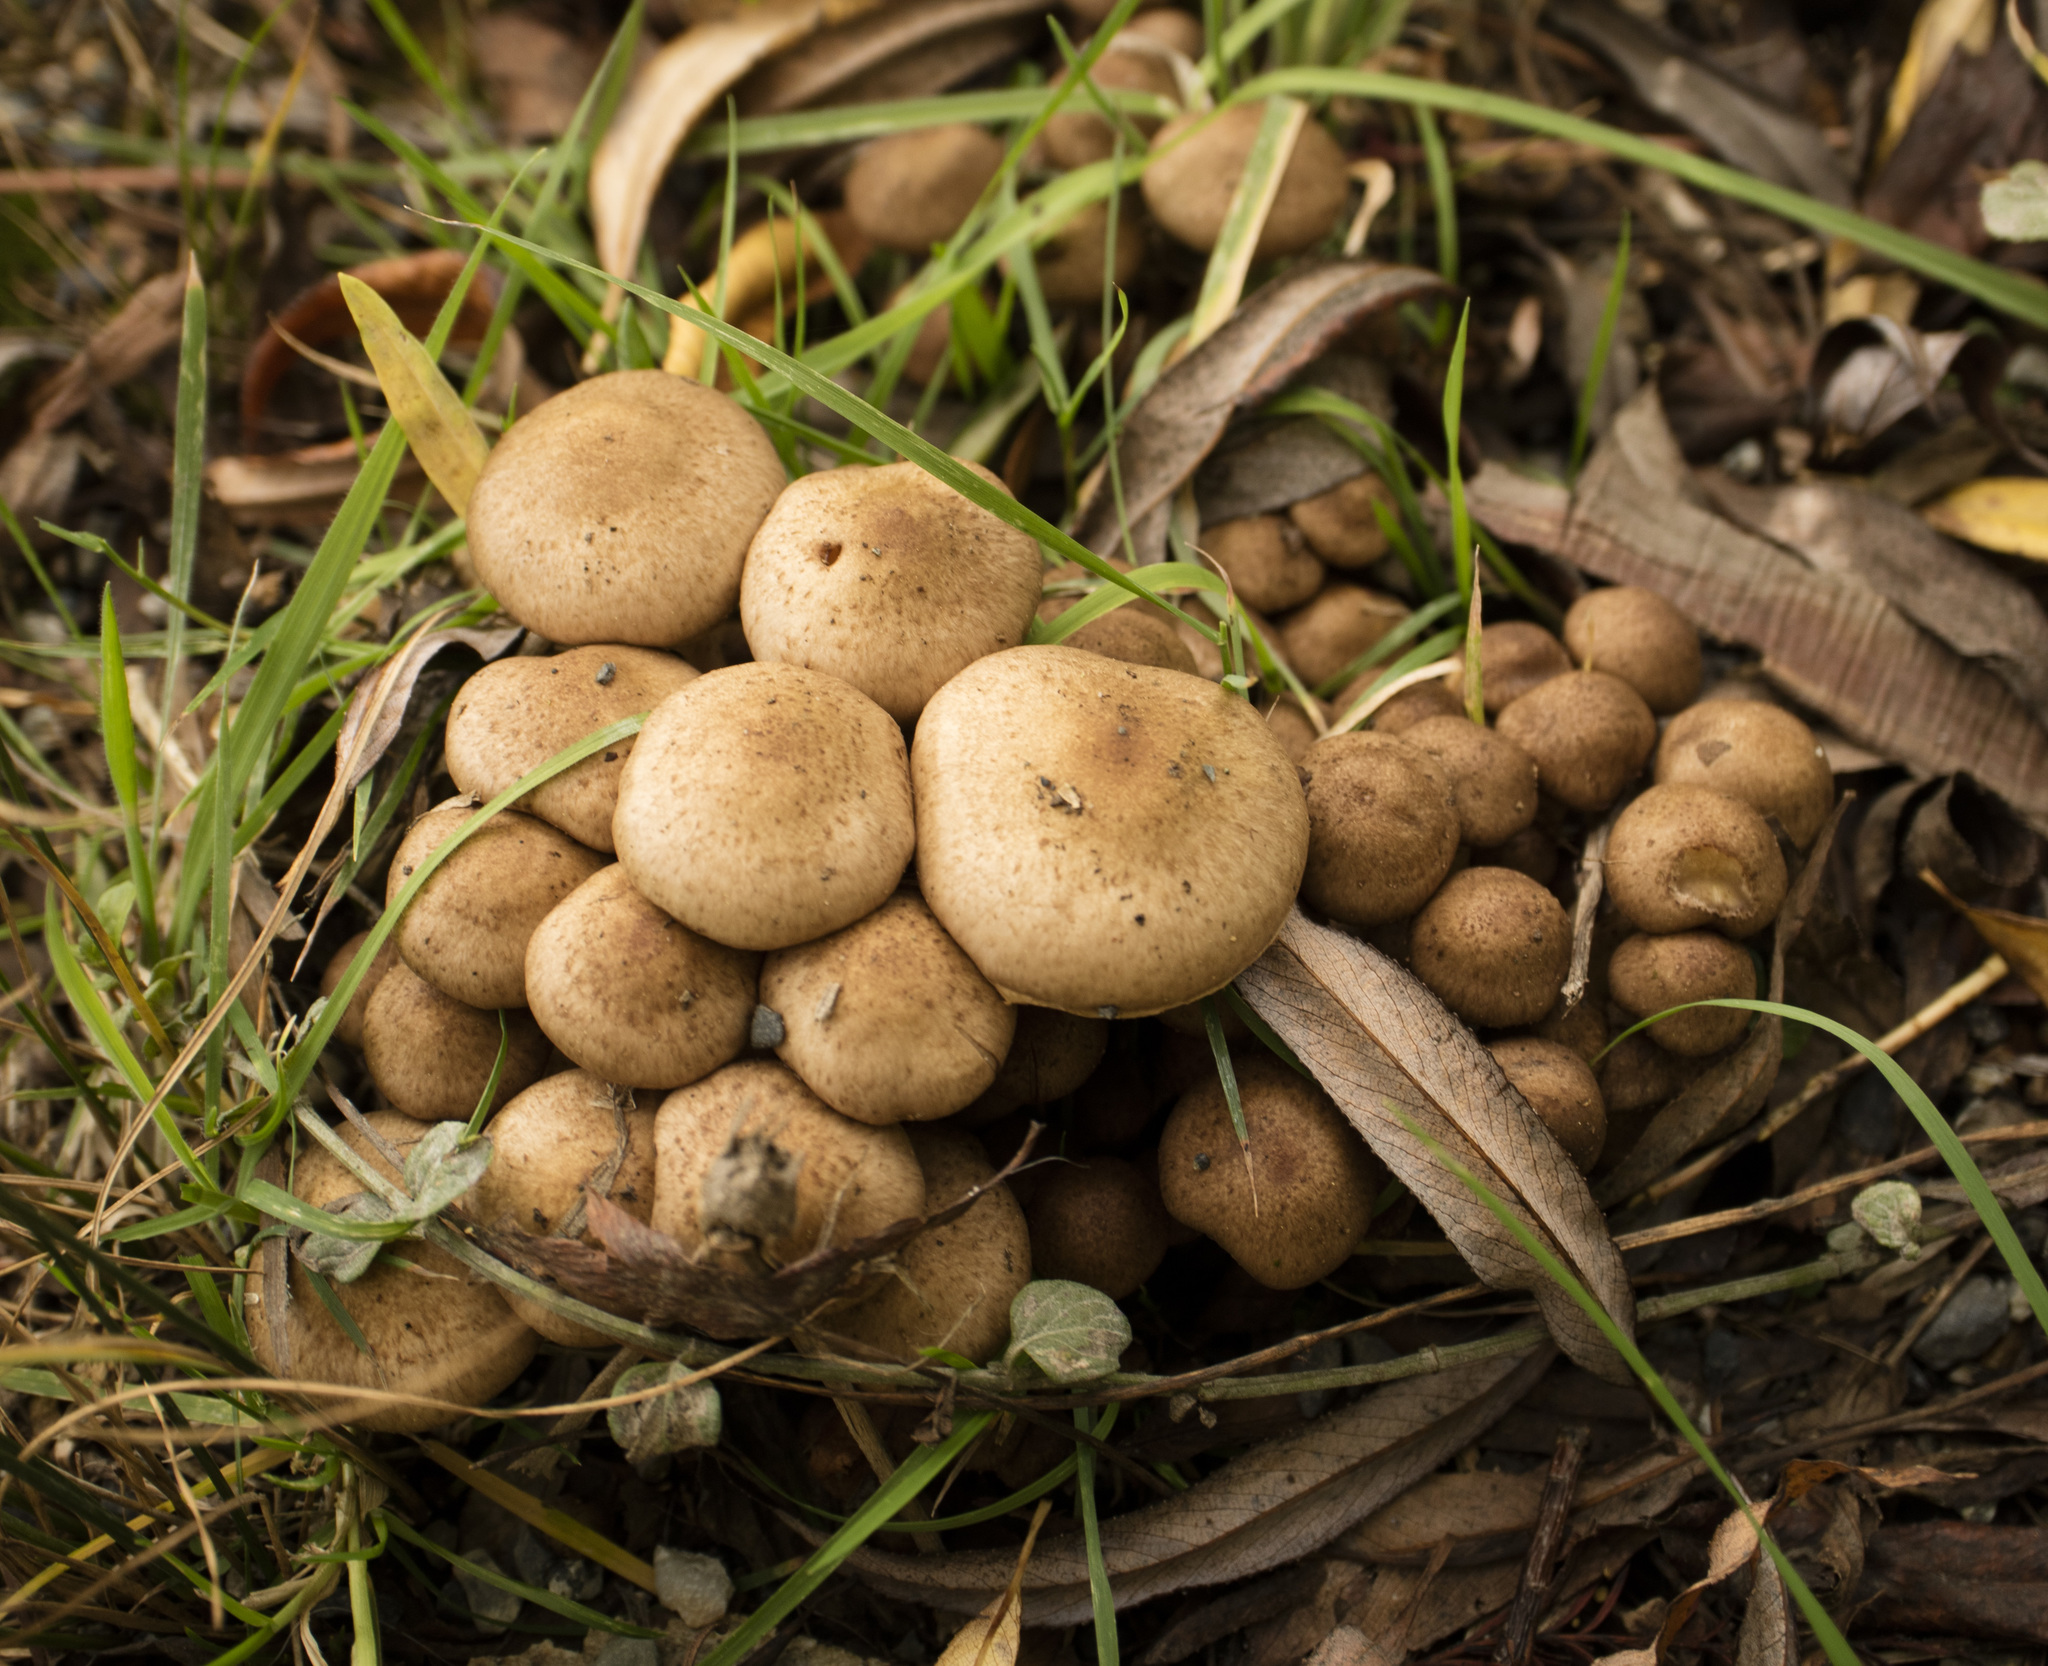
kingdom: Fungi
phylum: Basidiomycota
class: Agaricomycetes
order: Agaricales
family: Strophariaceae
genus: Pholiota
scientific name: Pholiota terrestris
